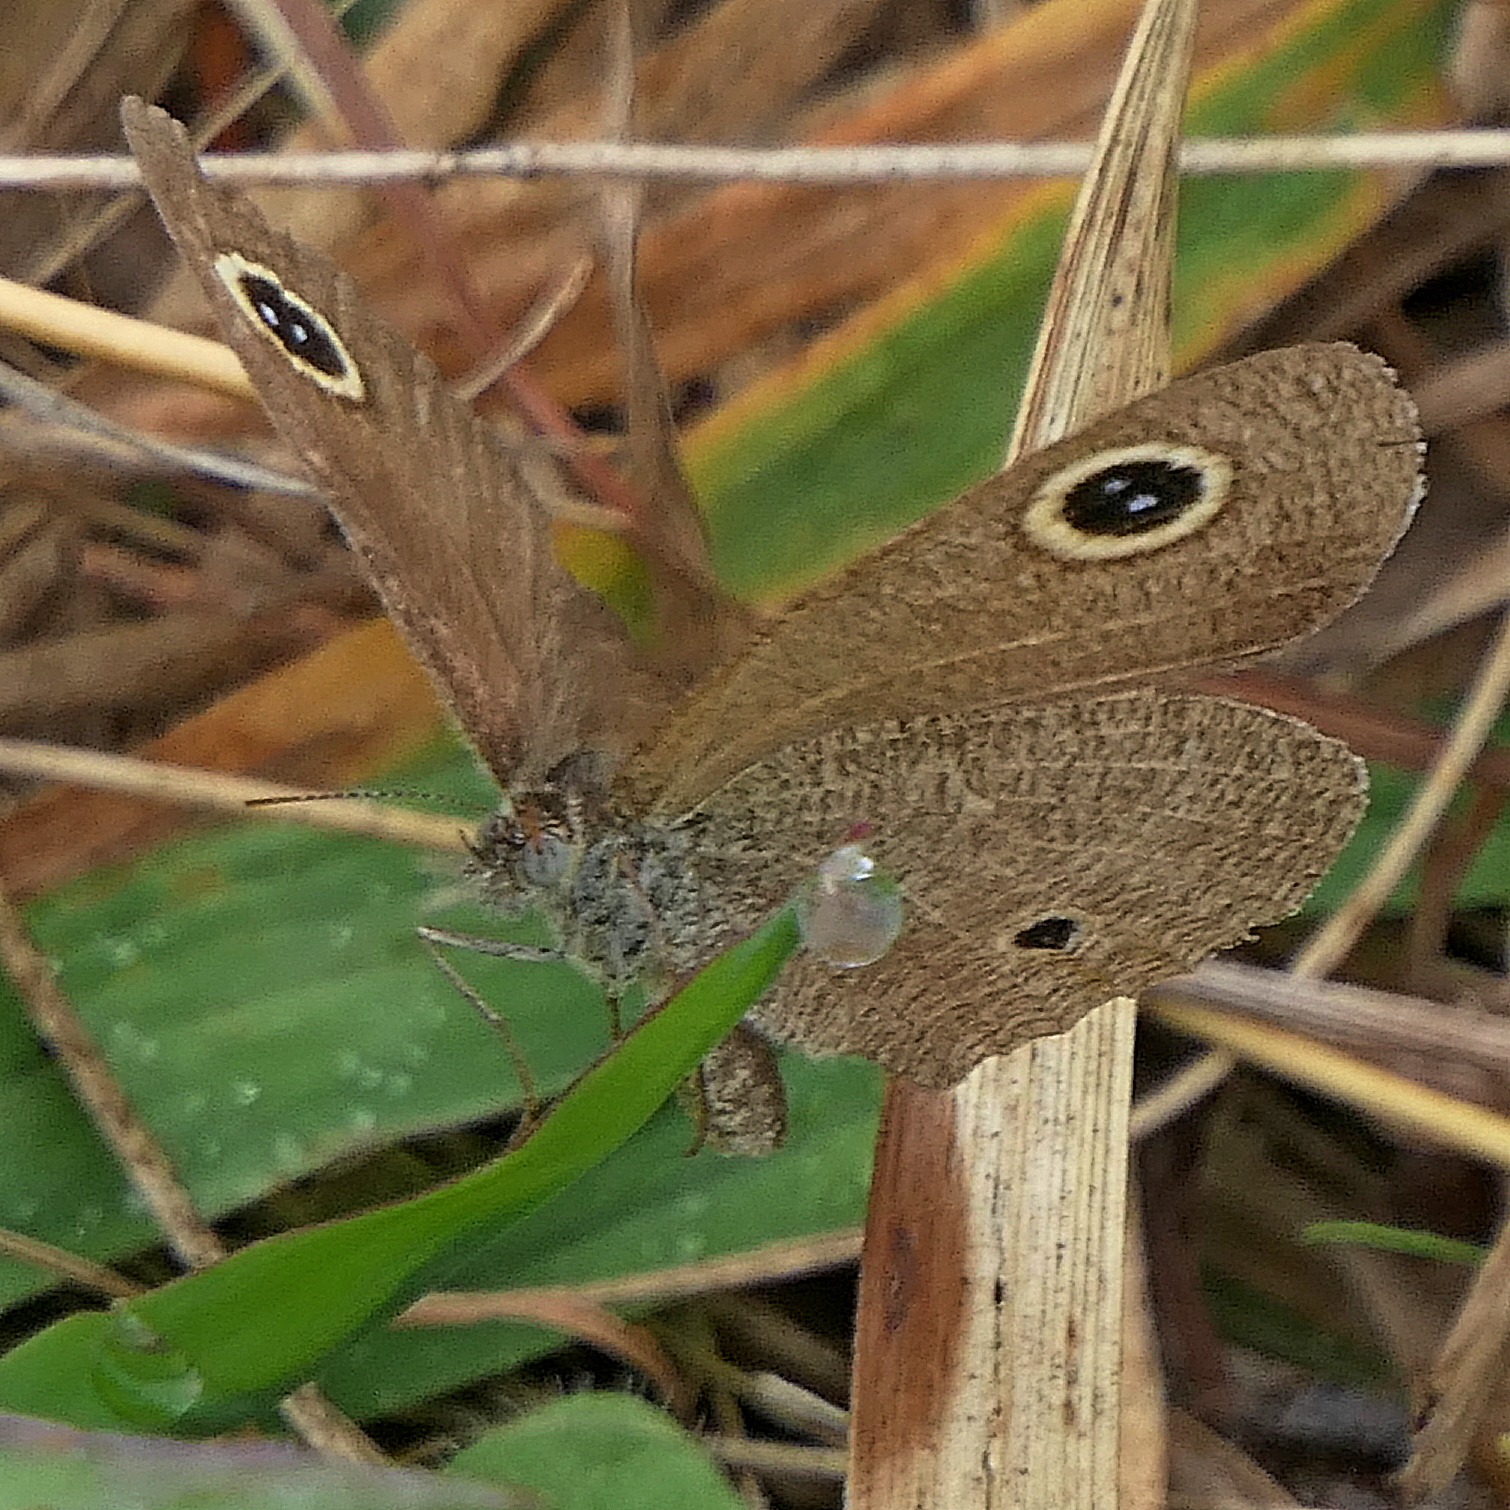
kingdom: Animalia
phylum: Arthropoda
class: Insecta
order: Lepidoptera
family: Nymphalidae
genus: Ypthima
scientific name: Ypthima arctous
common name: Dusky knight
